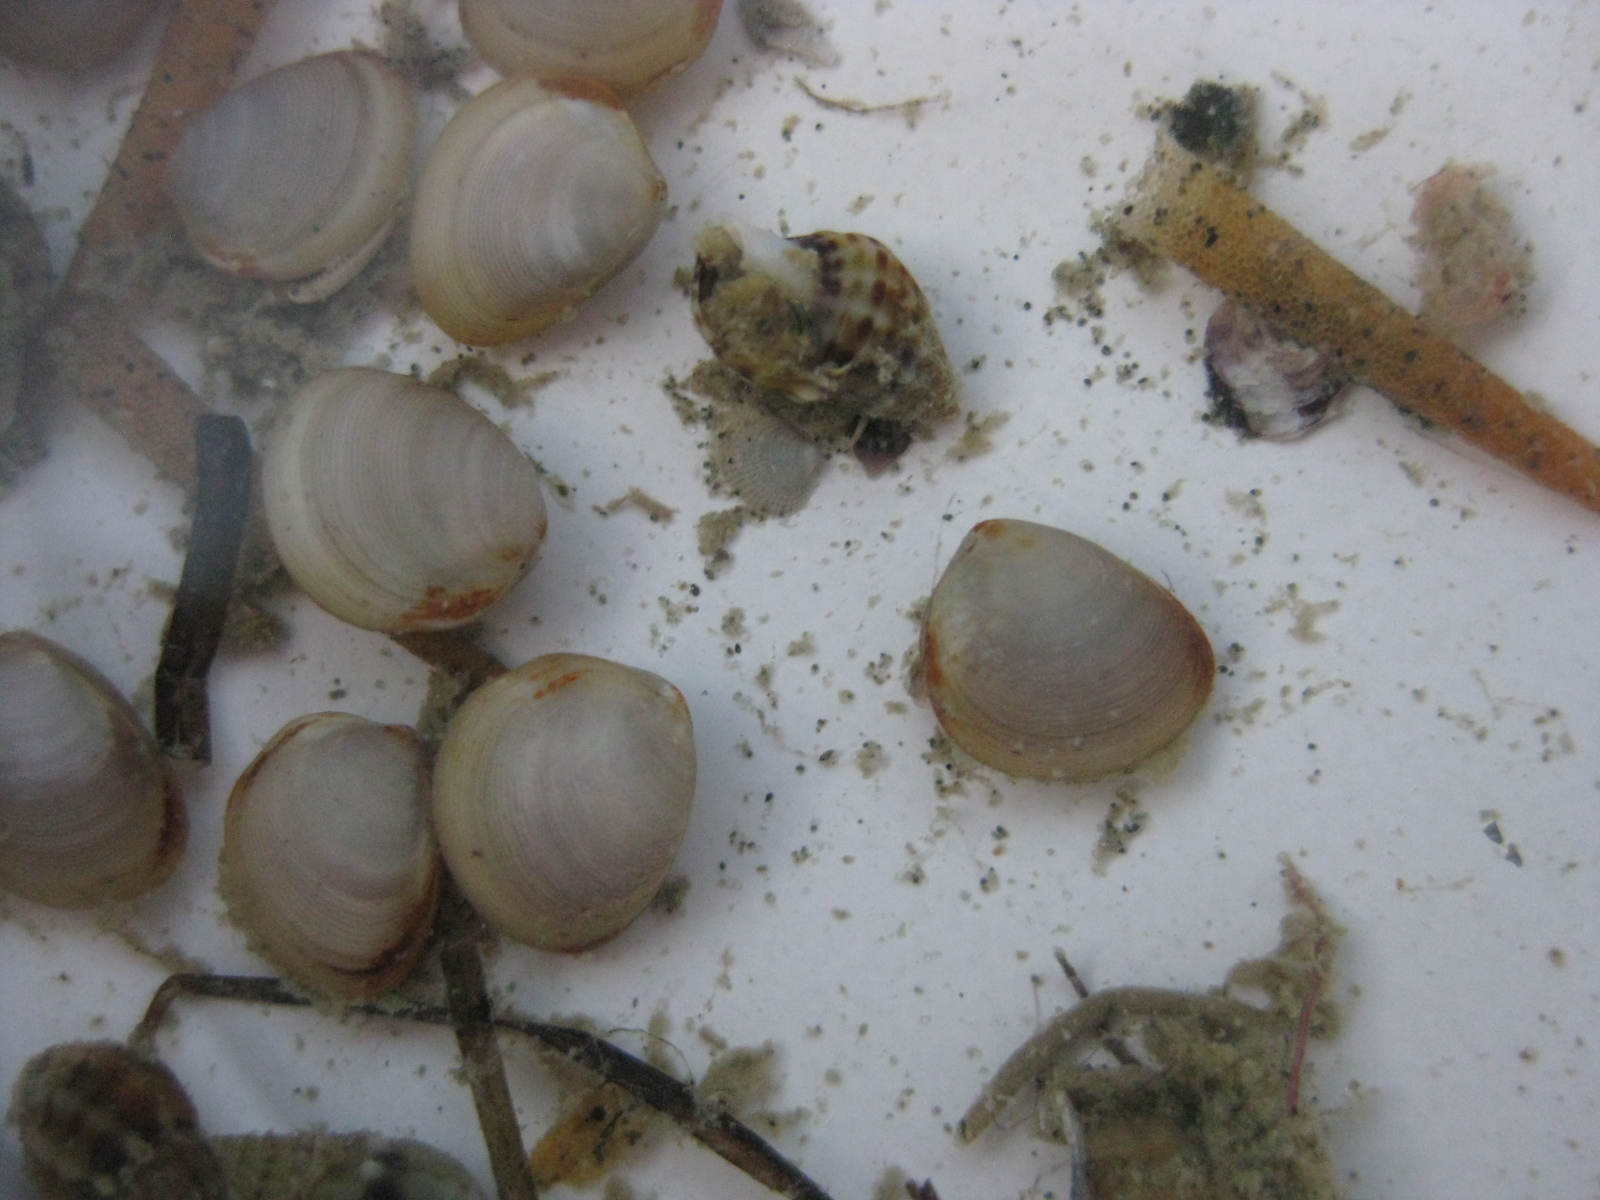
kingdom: Animalia
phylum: Mollusca
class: Bivalvia
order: Nuculida
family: Nuculidae
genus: Linucula
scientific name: Linucula hartvigiana
